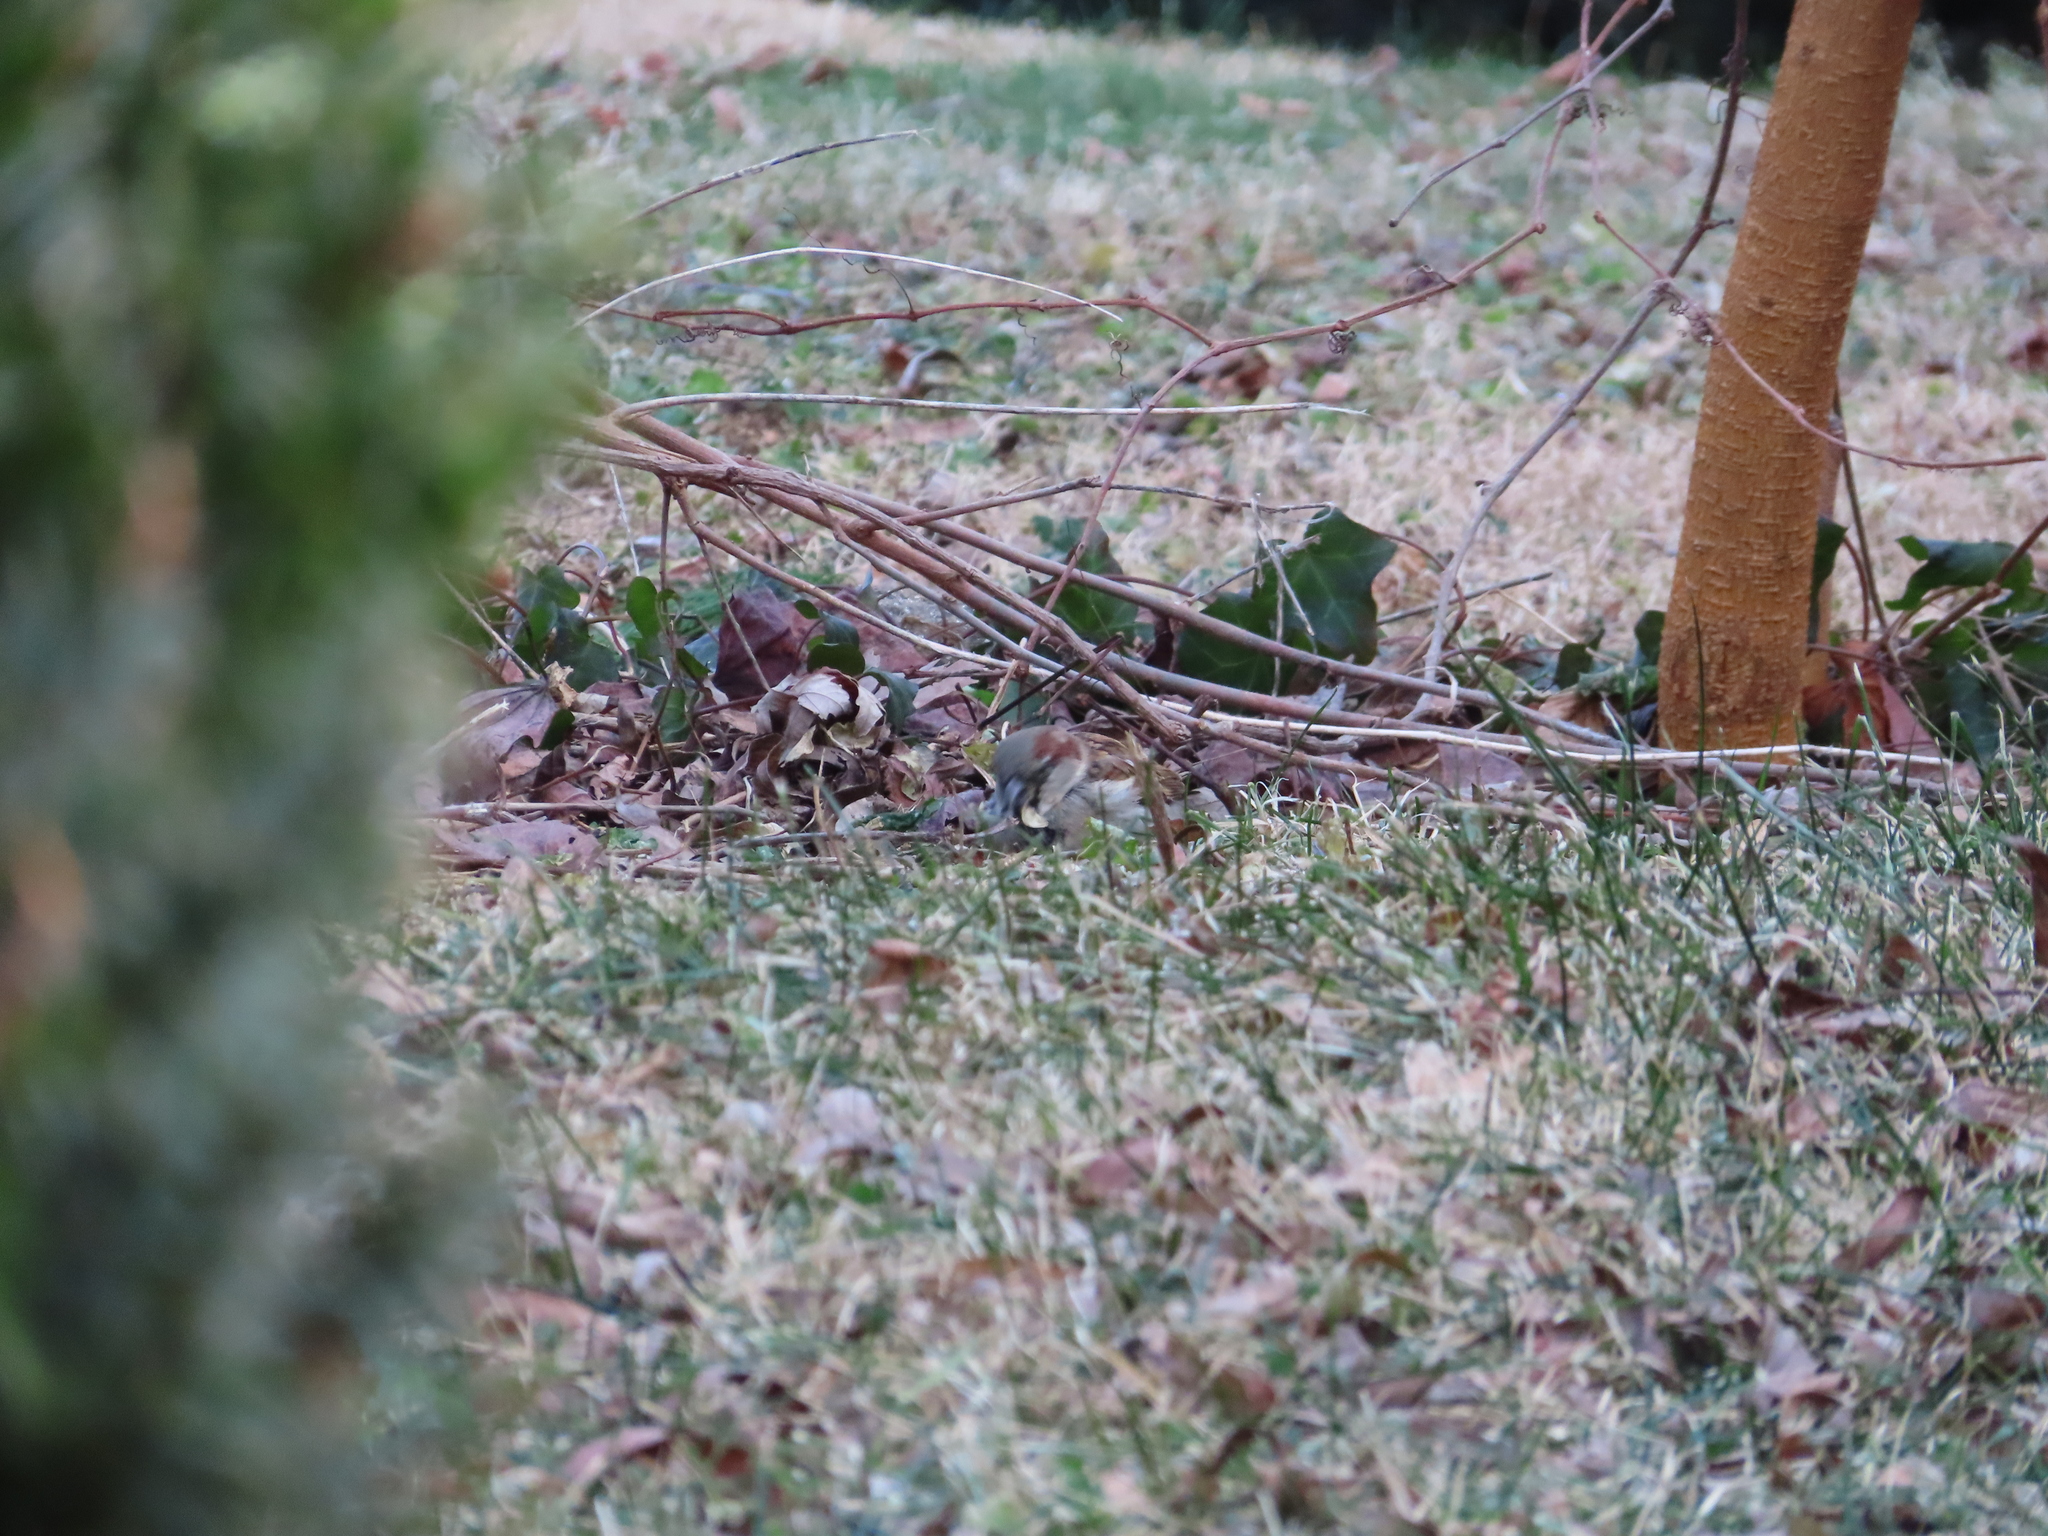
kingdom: Animalia
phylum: Chordata
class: Aves
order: Passeriformes
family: Passeridae
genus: Passer
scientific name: Passer domesticus
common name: House sparrow
